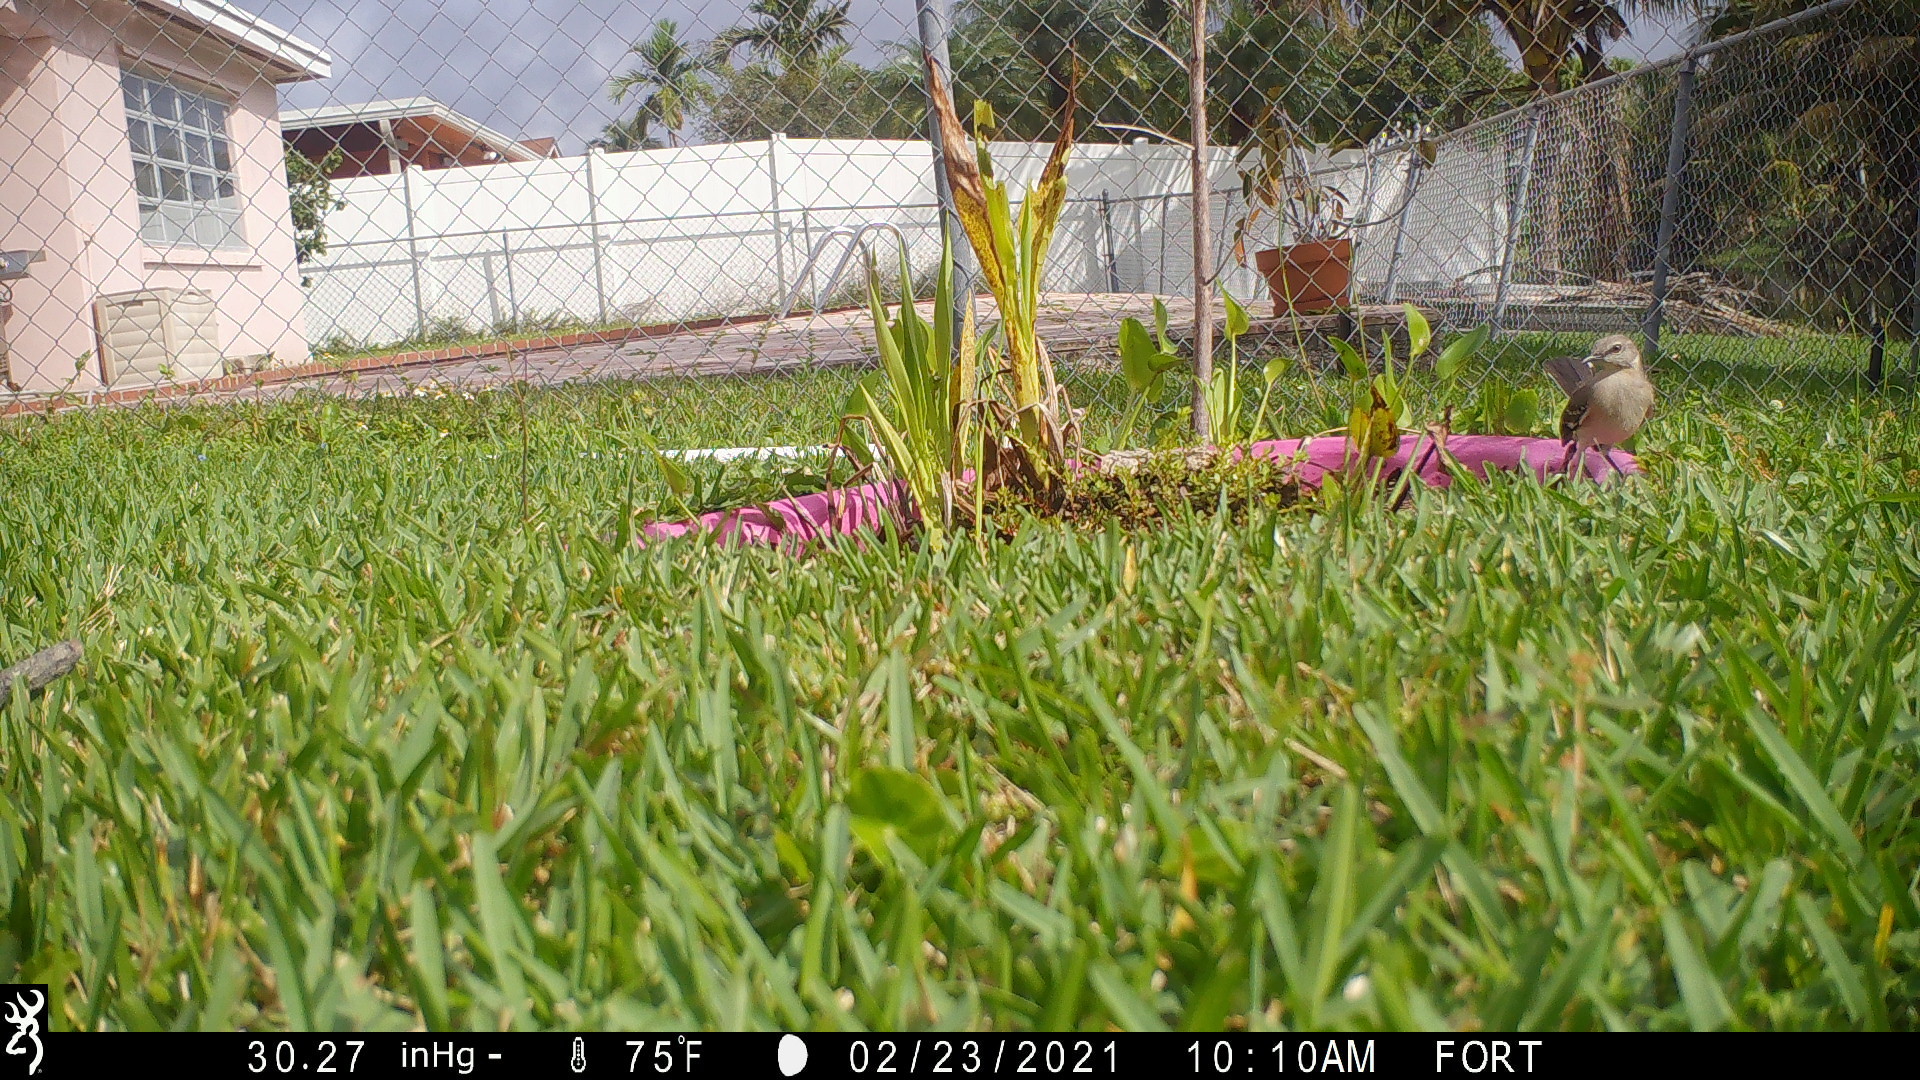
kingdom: Animalia
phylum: Chordata
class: Aves
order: Passeriformes
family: Mimidae
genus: Mimus
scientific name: Mimus polyglottos
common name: Northern mockingbird
